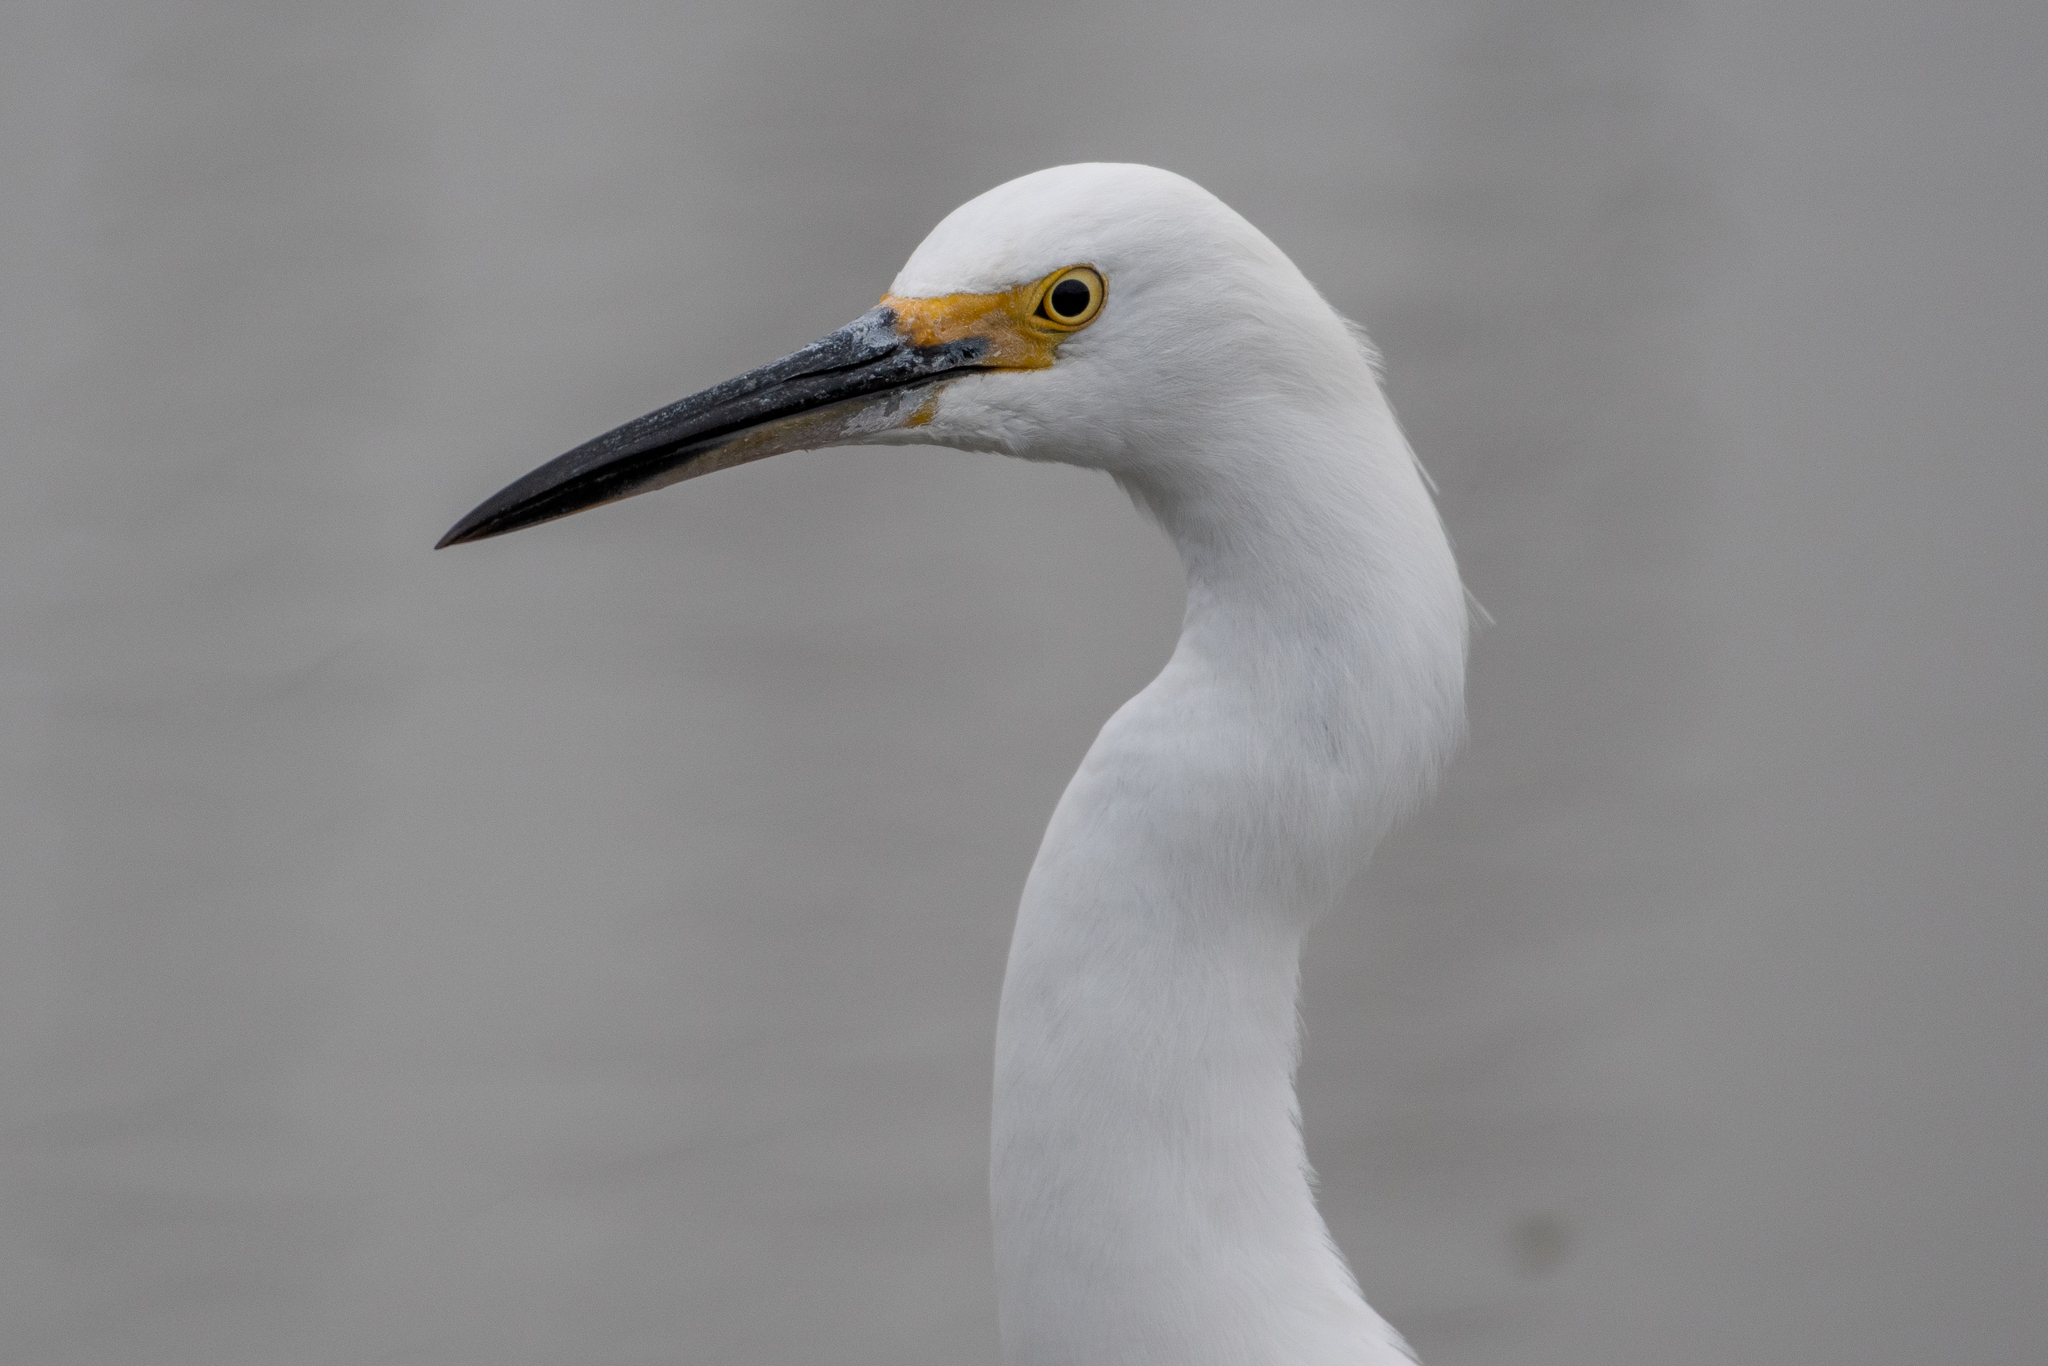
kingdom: Animalia
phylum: Chordata
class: Aves
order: Pelecaniformes
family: Ardeidae
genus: Egretta
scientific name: Egretta thula
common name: Snowy egret
